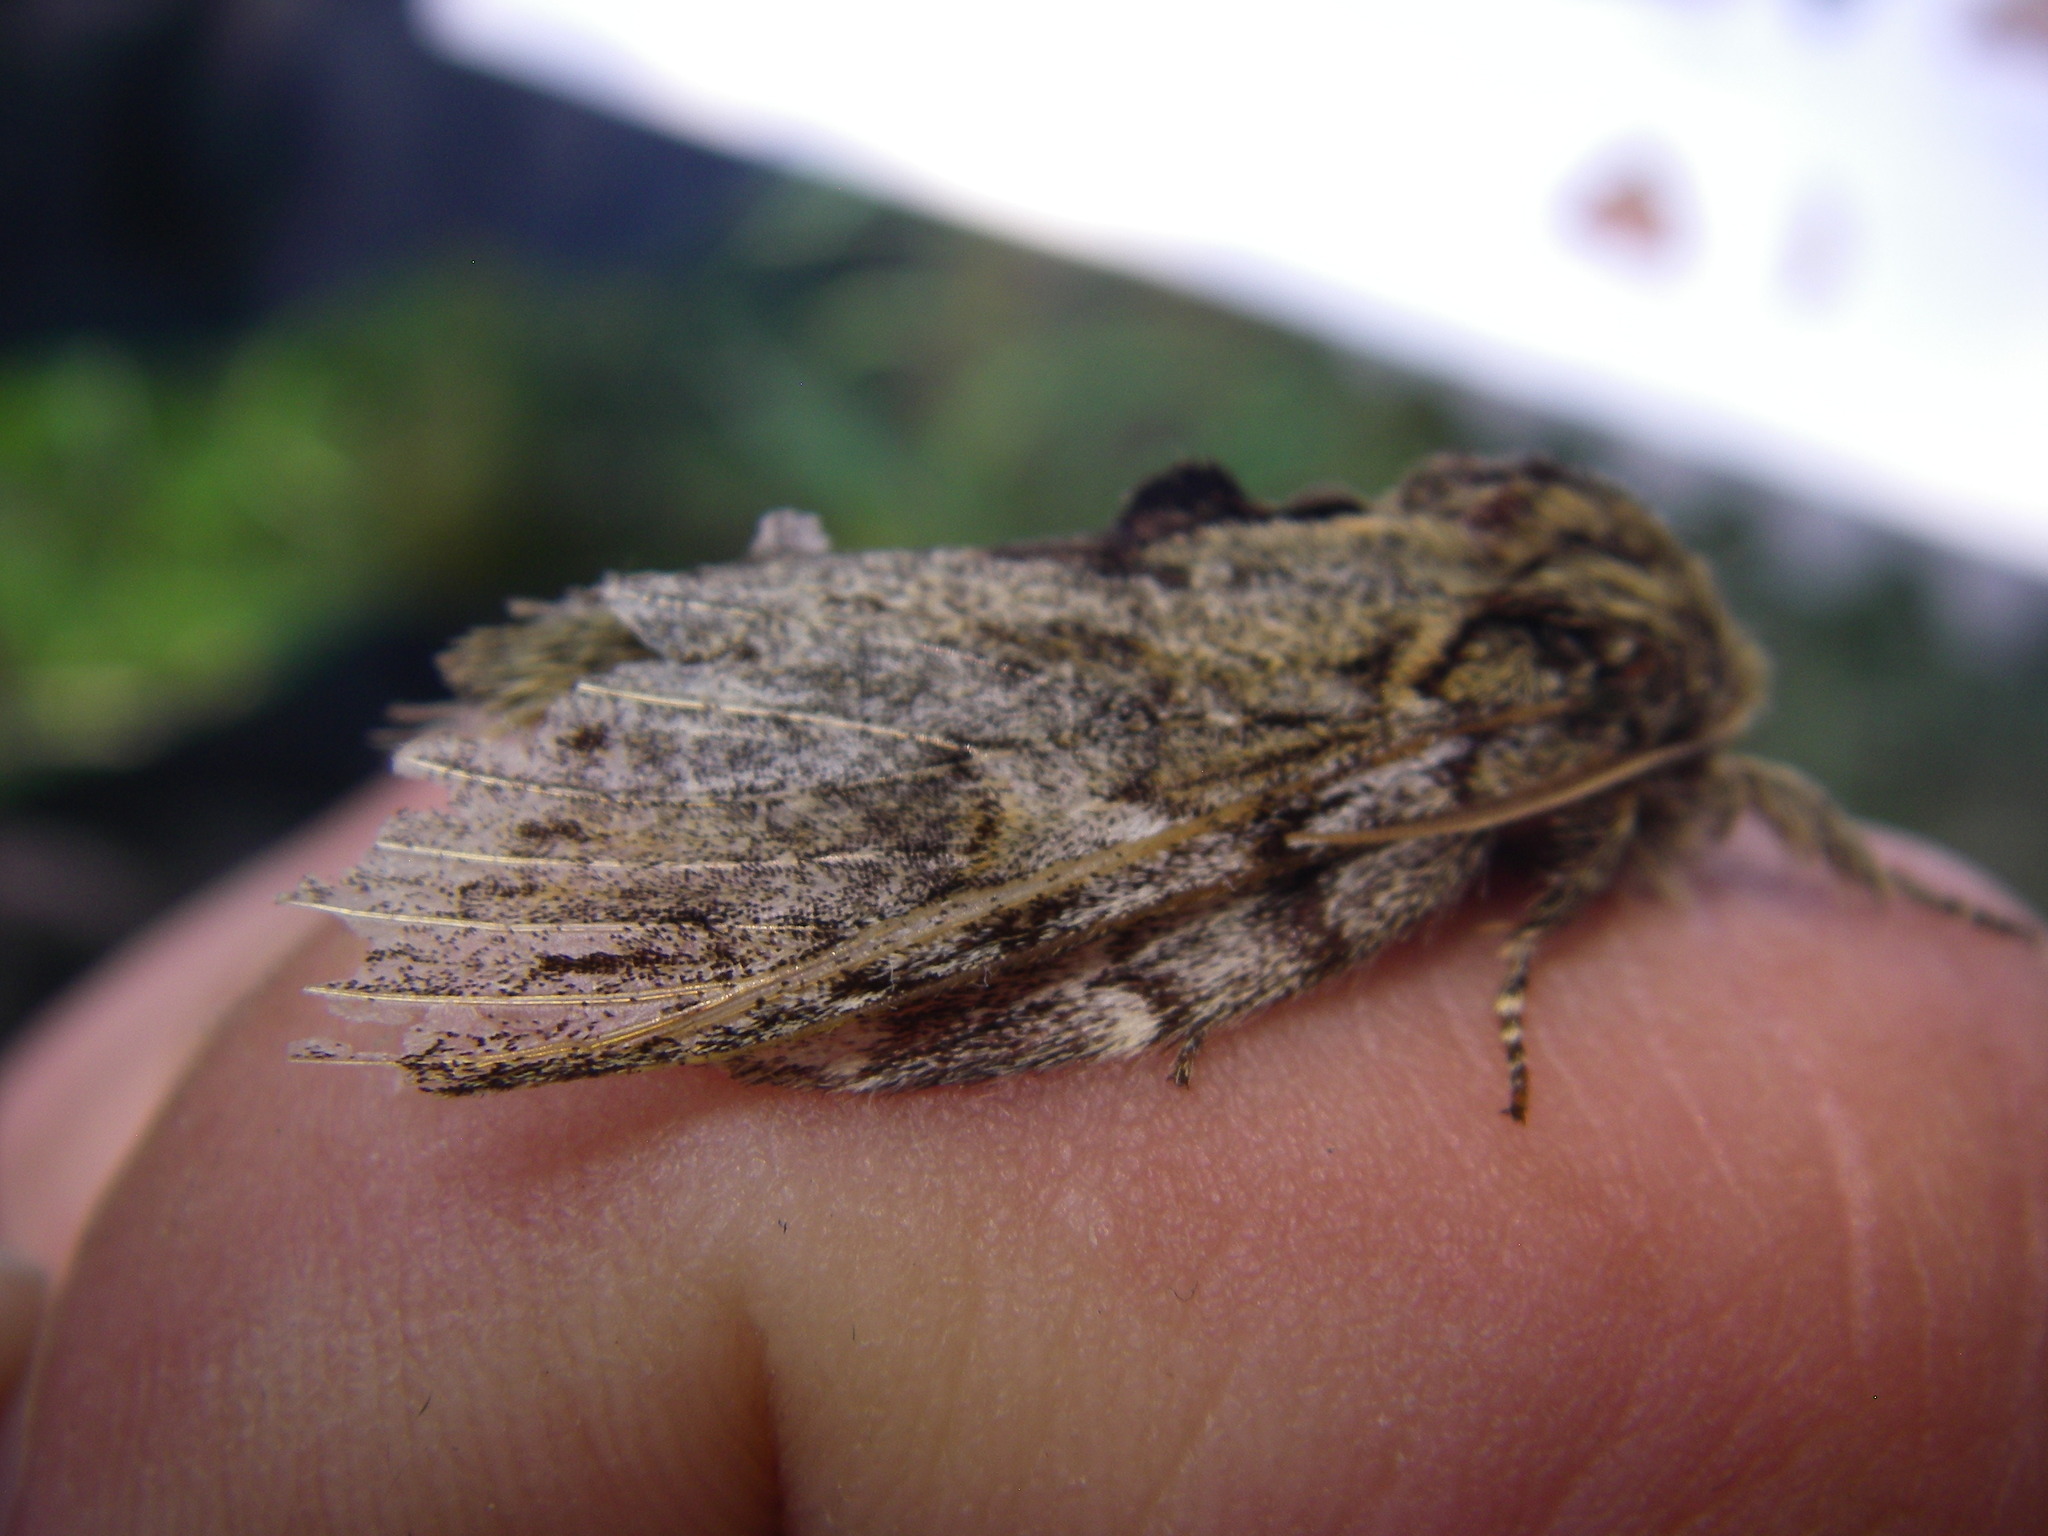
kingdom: Animalia
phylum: Arthropoda
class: Insecta
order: Lepidoptera
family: Notodontidae
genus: Peridea
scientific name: Peridea anceps
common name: Great prominent
